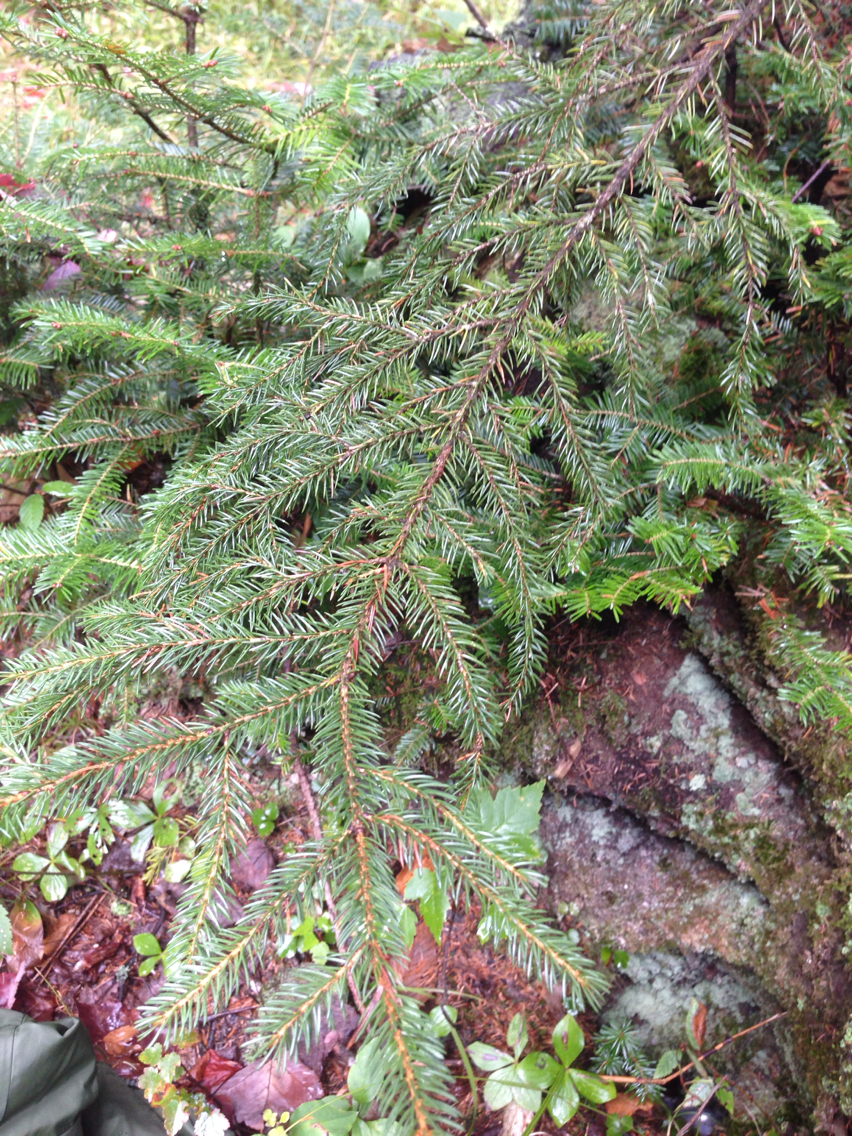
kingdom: Plantae
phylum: Tracheophyta
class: Pinopsida
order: Pinales
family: Pinaceae
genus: Picea
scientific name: Picea rubens
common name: Red spruce
